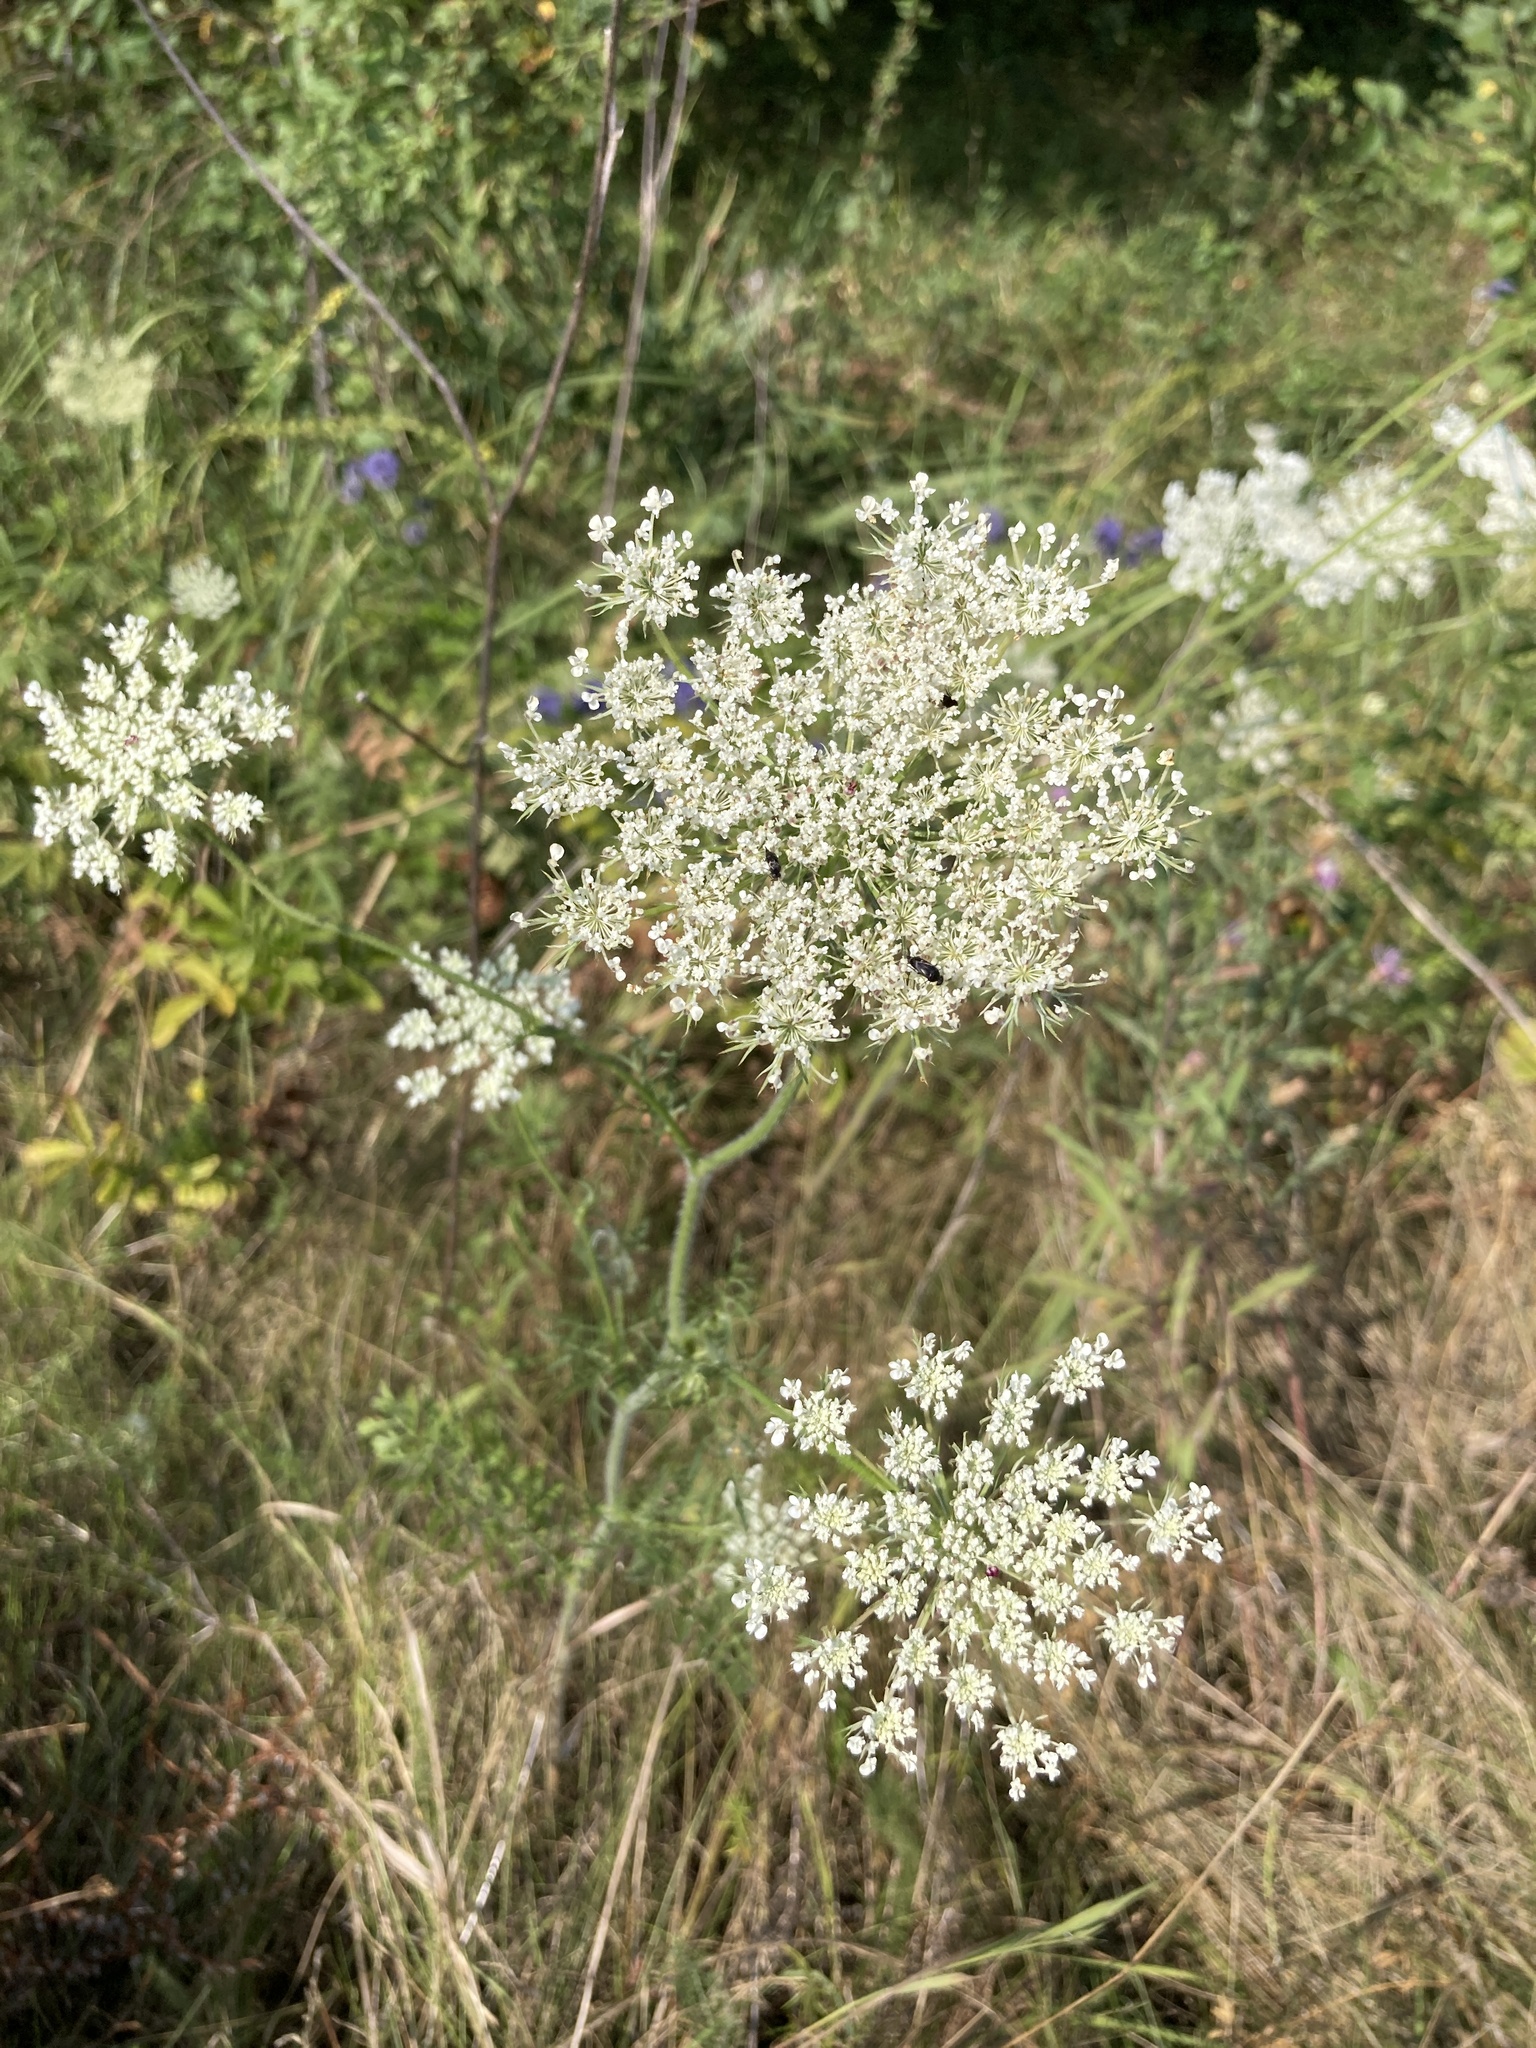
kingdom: Plantae
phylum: Tracheophyta
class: Magnoliopsida
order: Apiales
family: Apiaceae
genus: Daucus
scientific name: Daucus carota
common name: Wild carrot
